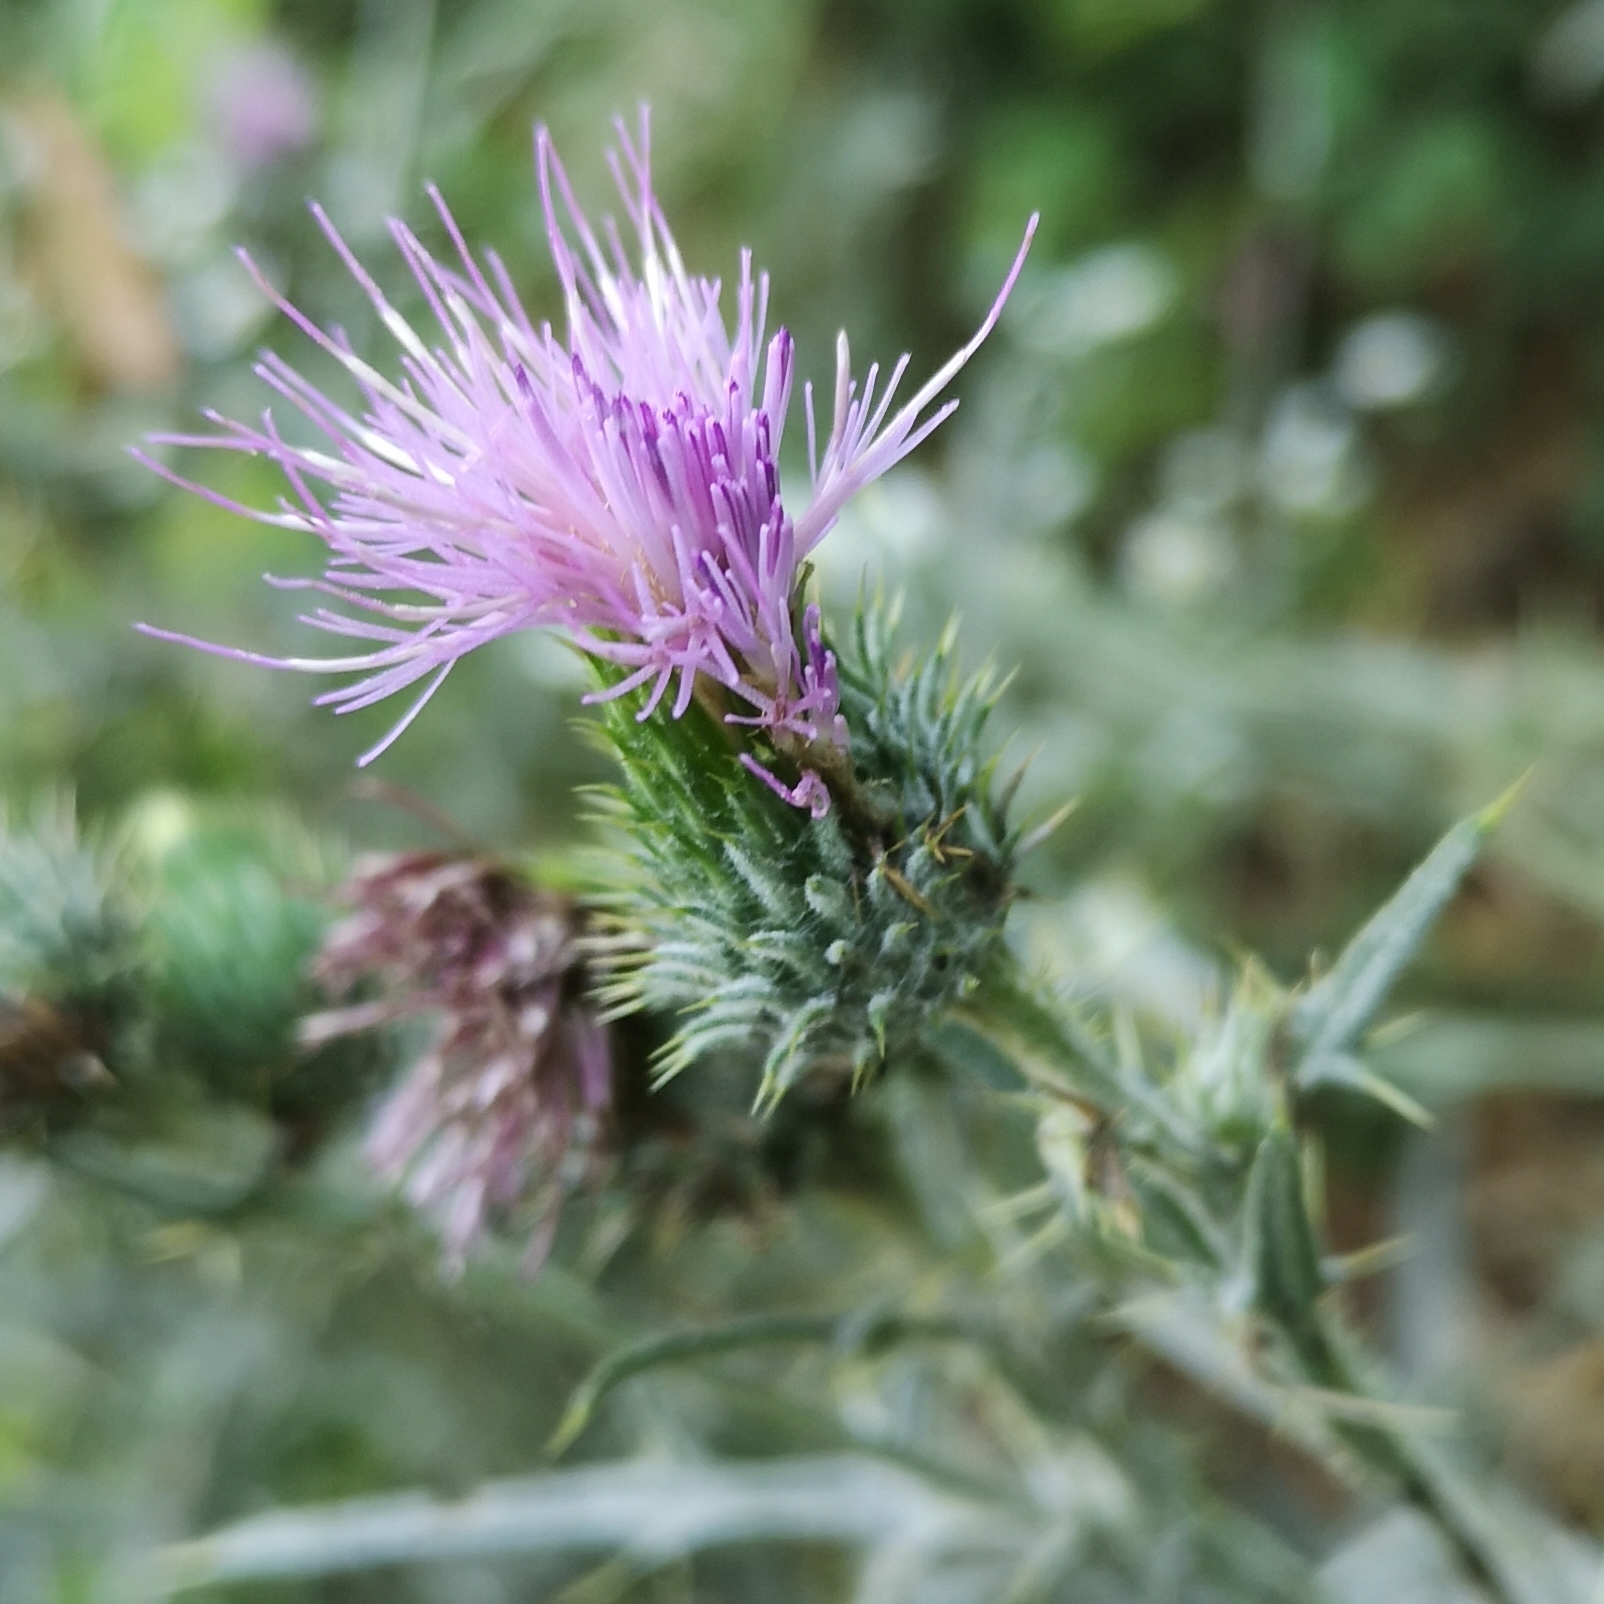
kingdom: Plantae
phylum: Tracheophyta
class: Magnoliopsida
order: Asterales
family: Asteraceae
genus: Cirsium
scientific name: Cirsium vulgare
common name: Bull thistle
